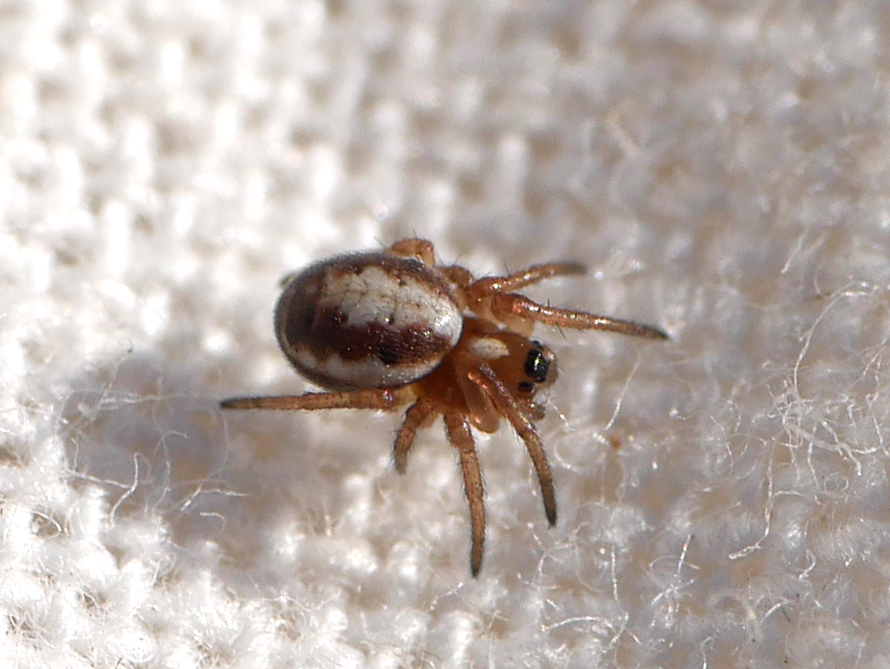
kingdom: Animalia
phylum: Arthropoda
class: Arachnida
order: Araneae
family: Araneidae
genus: Hypsosinga
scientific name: Hypsosinga albovittata
